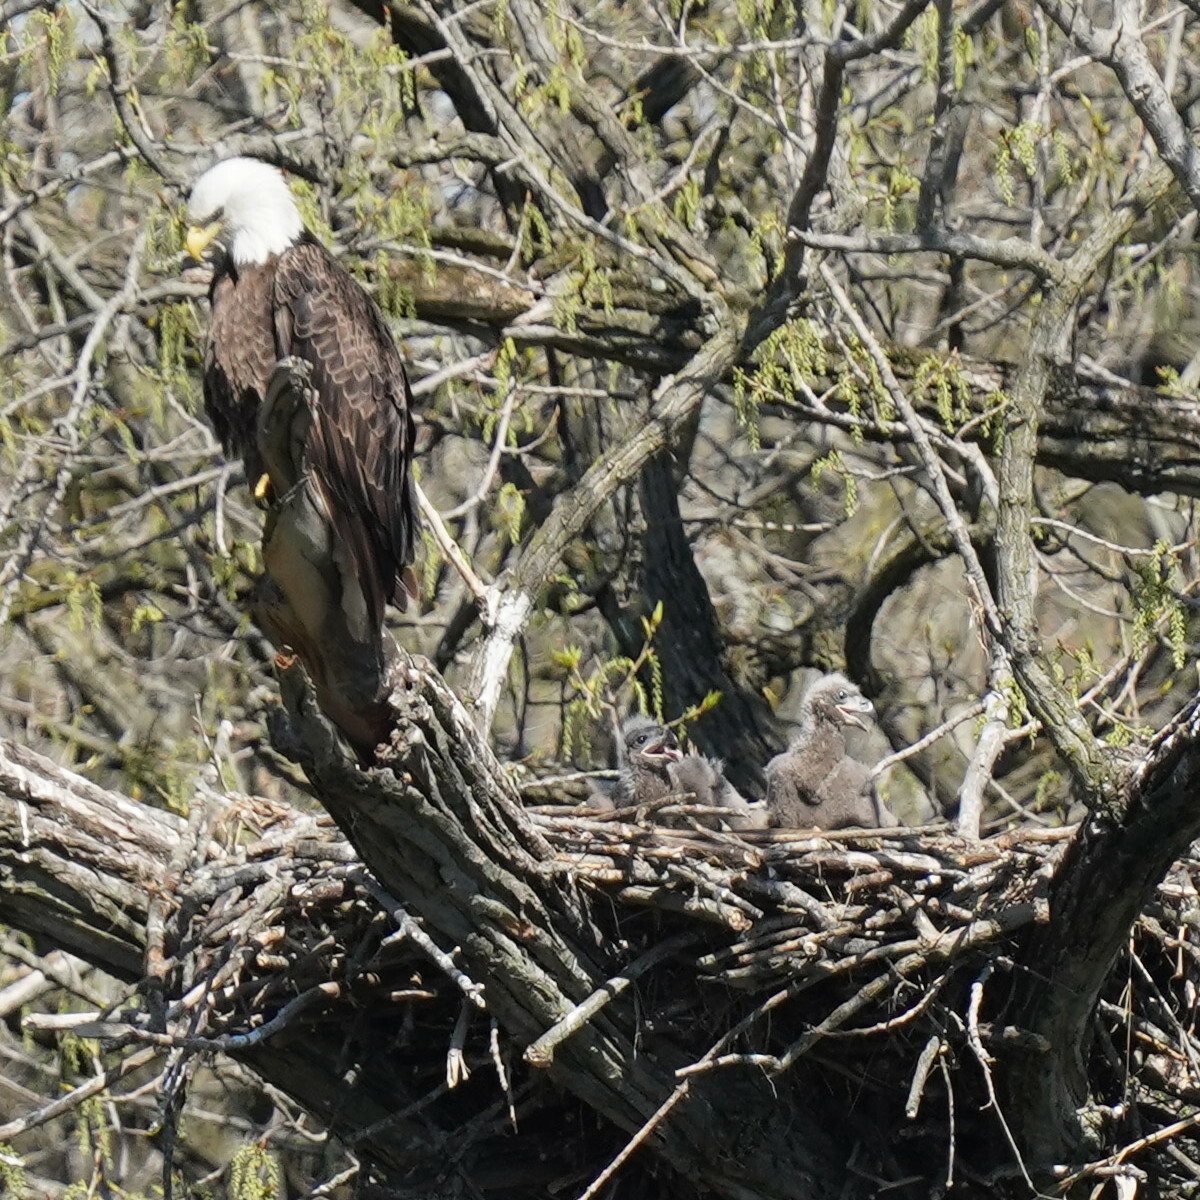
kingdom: Animalia
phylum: Chordata
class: Aves
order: Accipitriformes
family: Accipitridae
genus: Haliaeetus
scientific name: Haliaeetus leucocephalus
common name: Bald eagle
